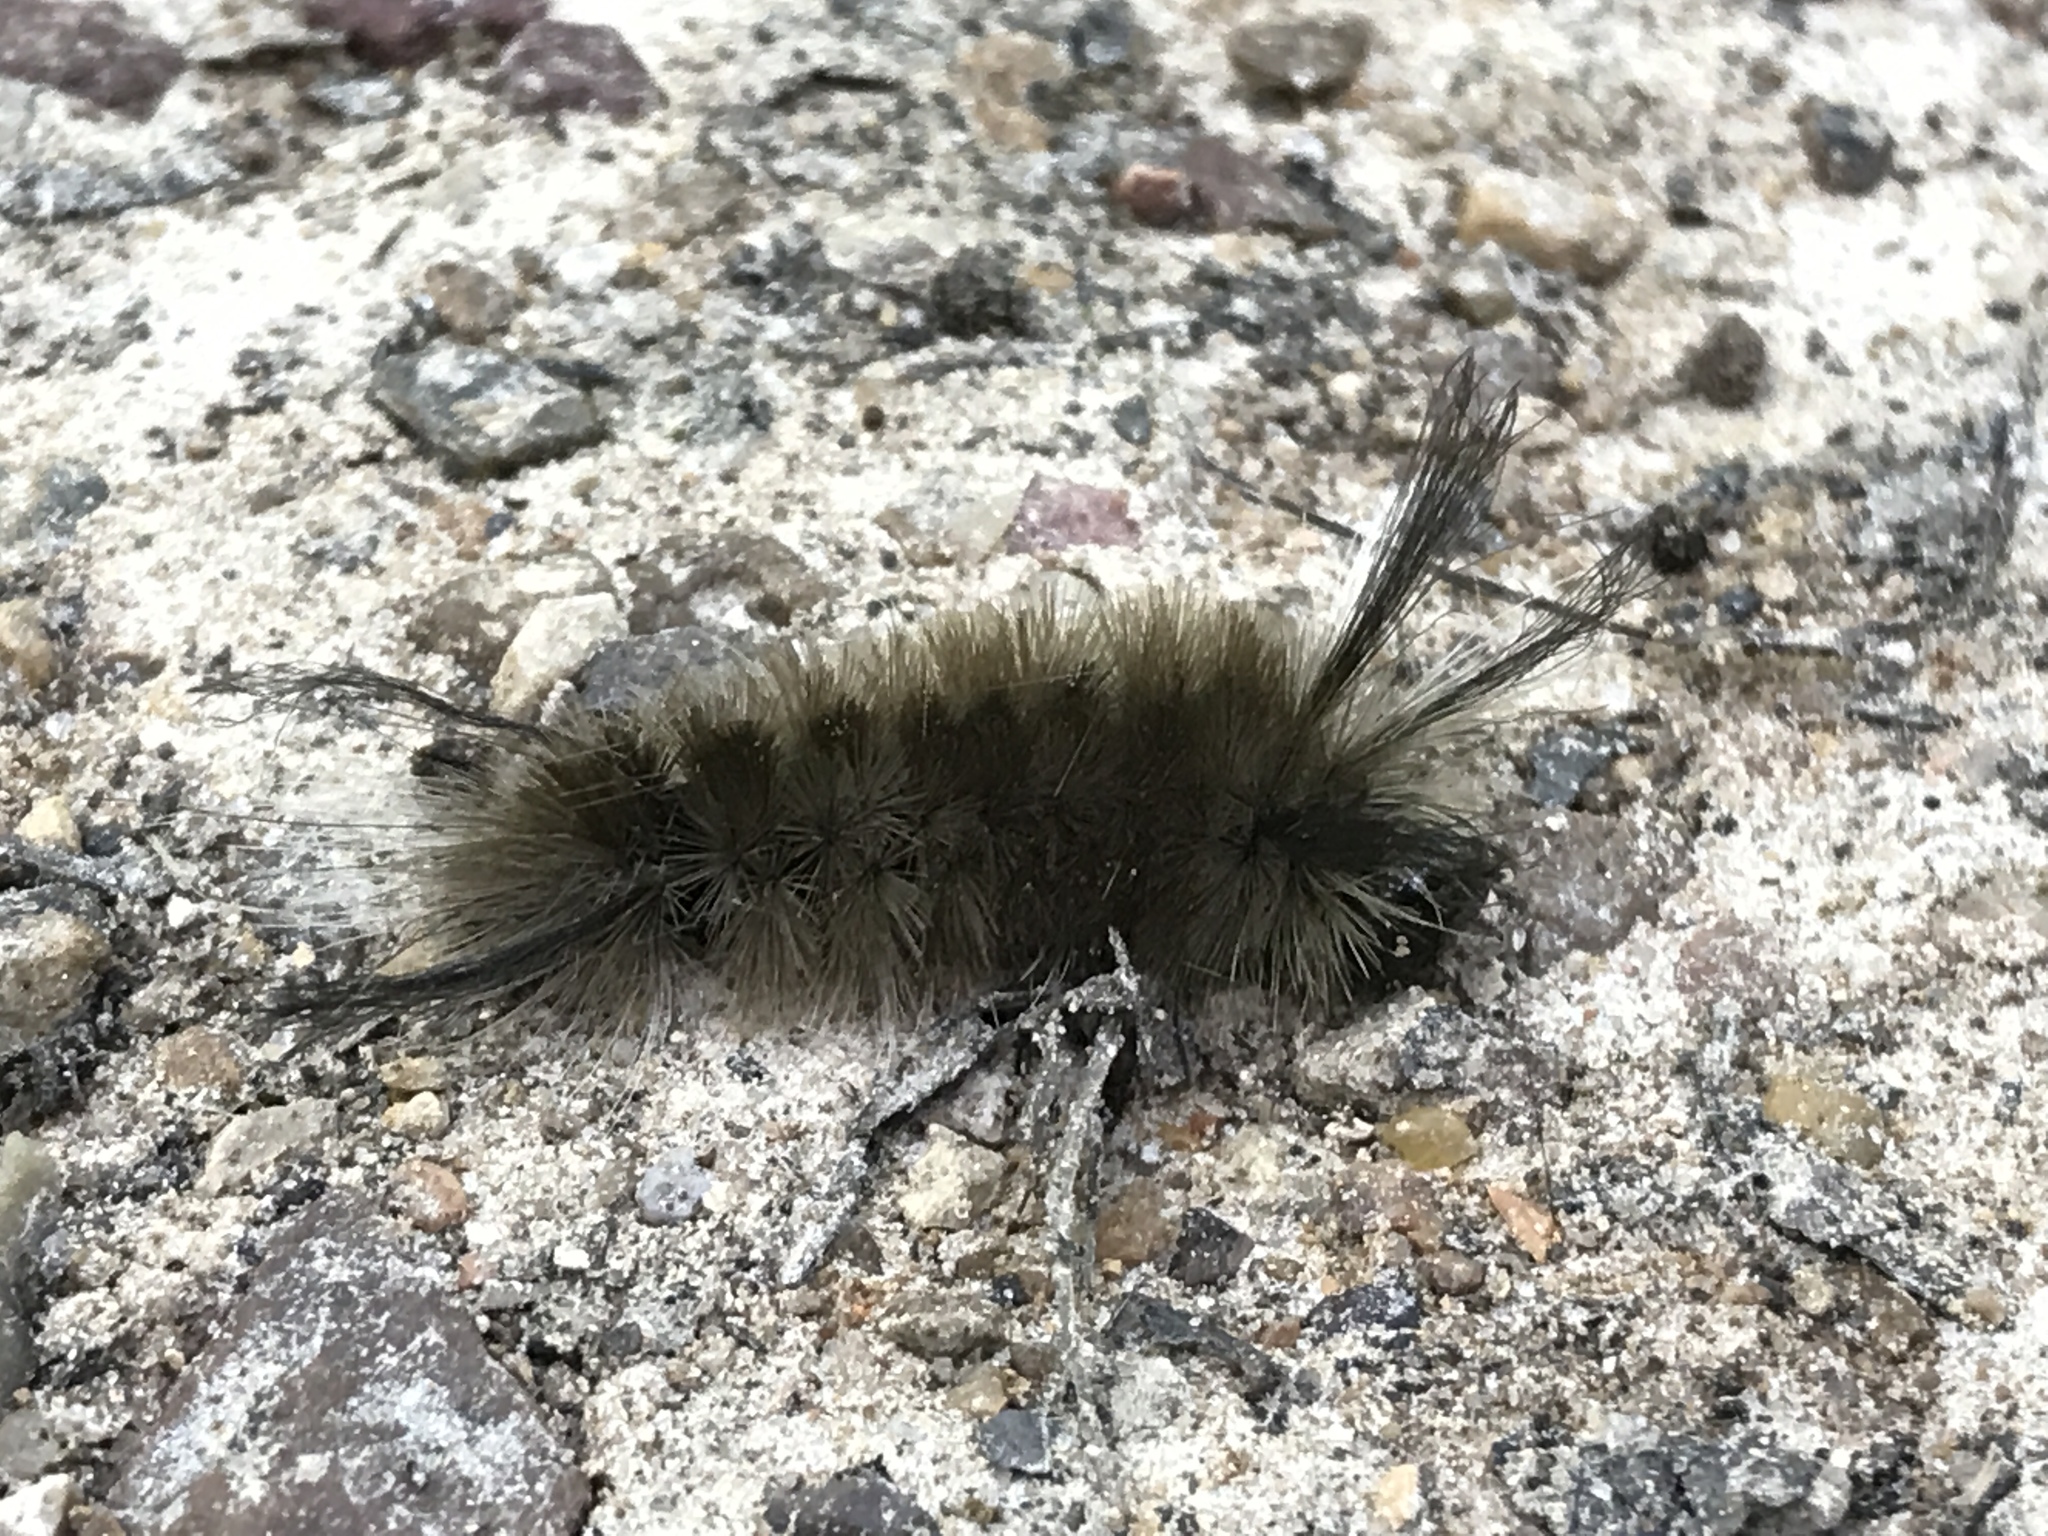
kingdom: Animalia
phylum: Arthropoda
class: Insecta
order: Lepidoptera
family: Erebidae
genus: Halysidota
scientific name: Halysidota tessellaris
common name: Banded tussock moth
